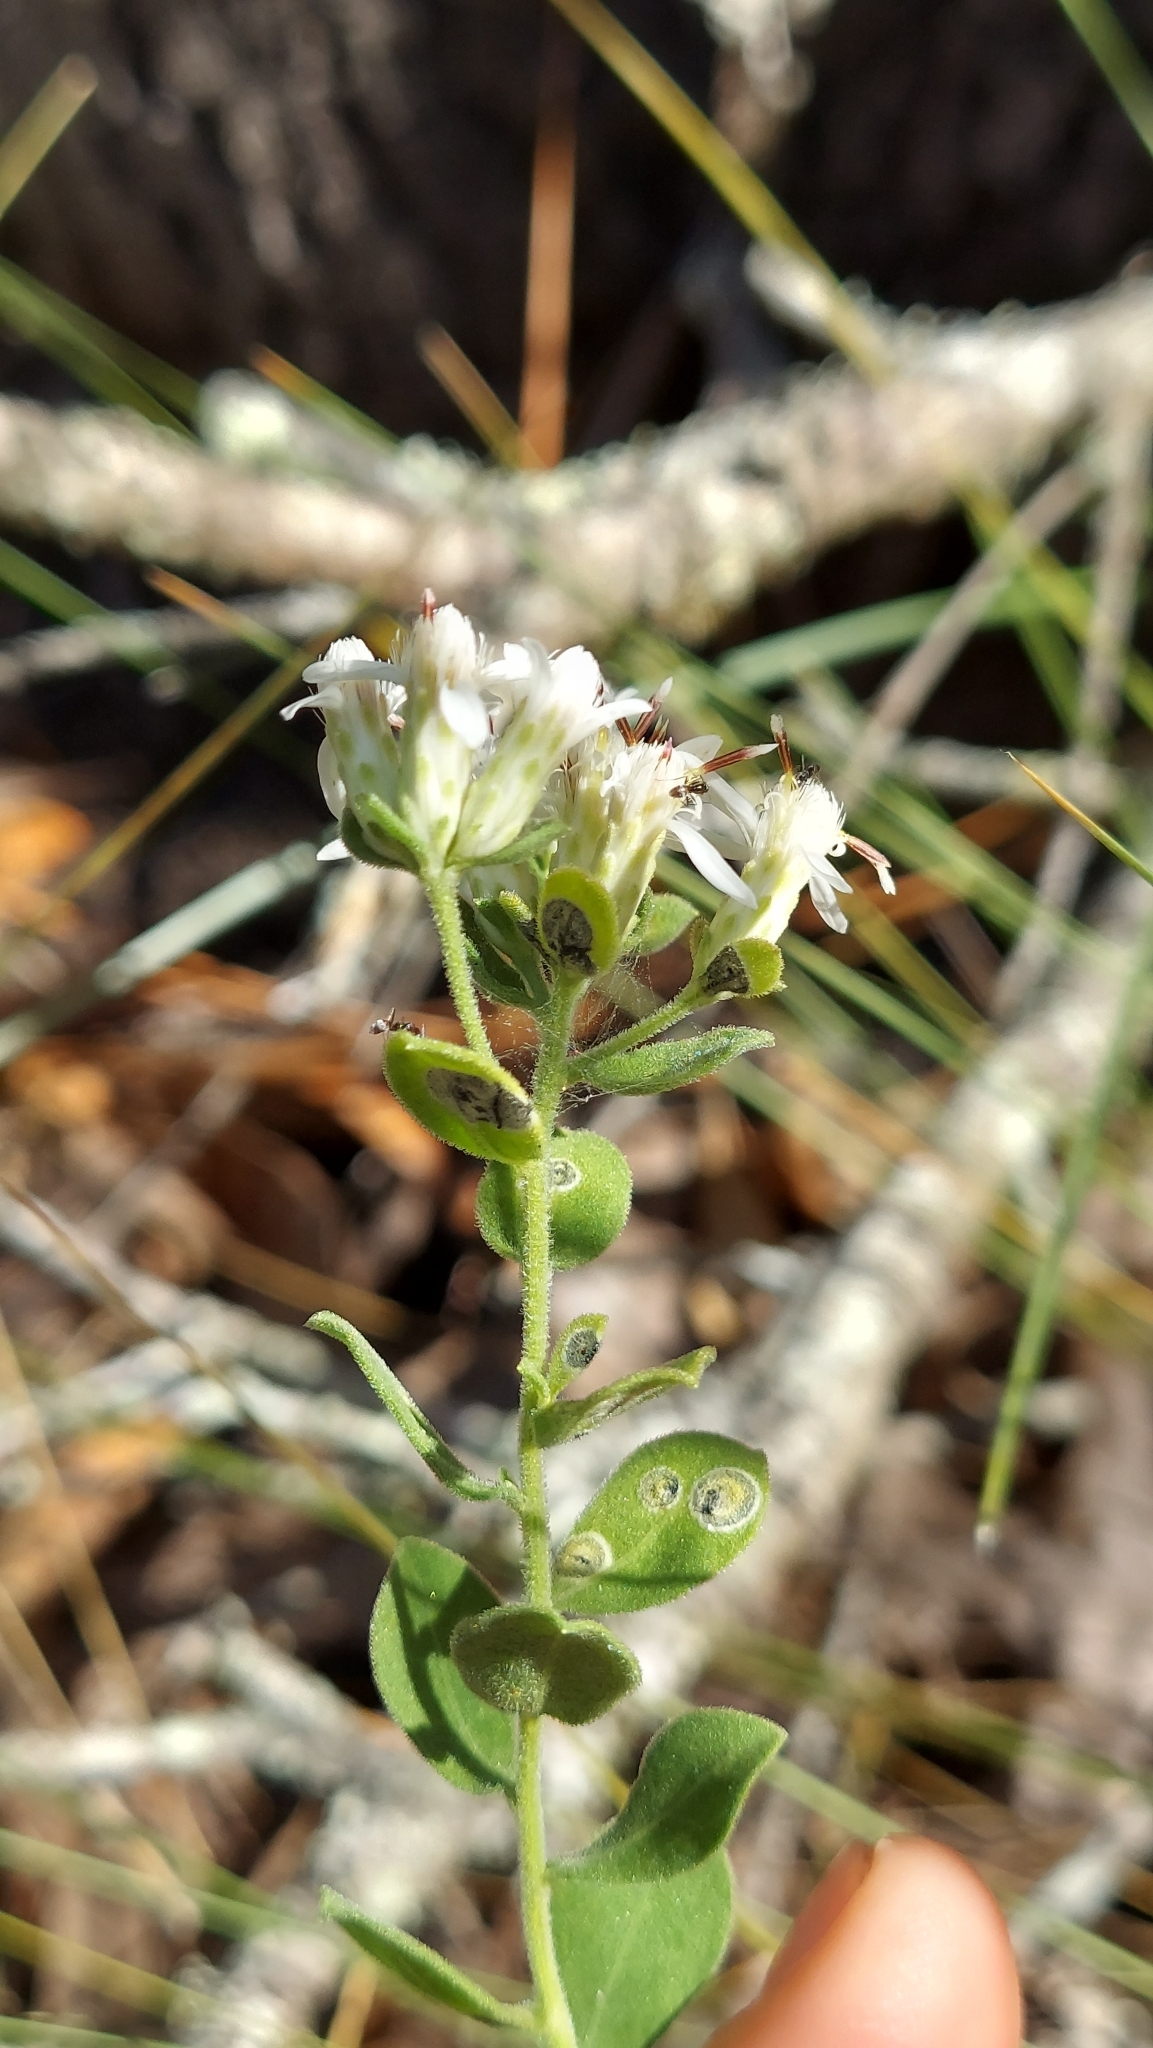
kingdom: Plantae
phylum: Tracheophyta
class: Magnoliopsida
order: Asterales
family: Asteraceae
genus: Sericocarpus
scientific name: Sericocarpus tortifolius
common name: Dixie aster
